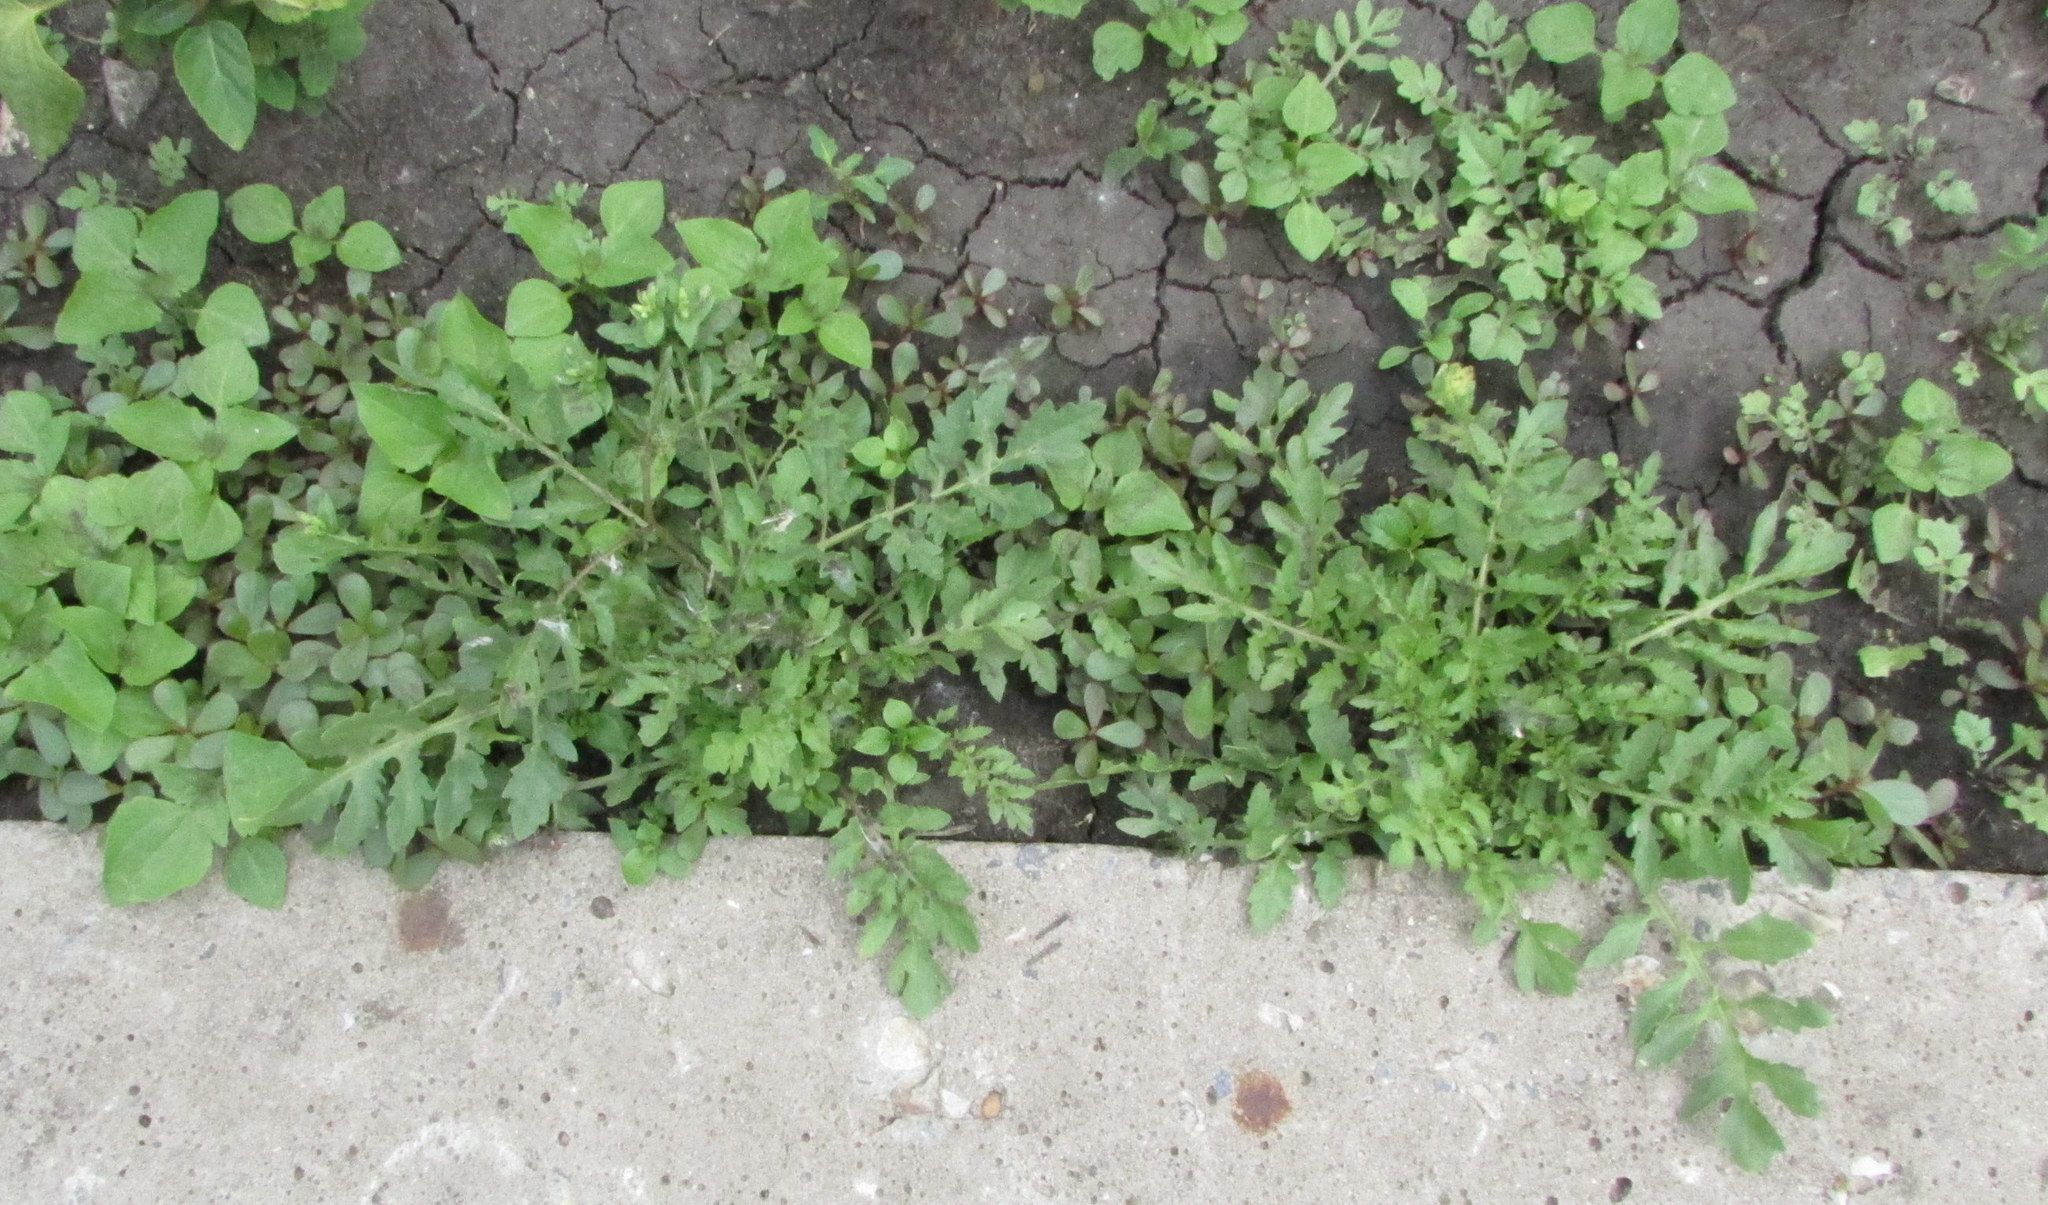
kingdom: Plantae
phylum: Tracheophyta
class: Magnoliopsida
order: Brassicales
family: Brassicaceae
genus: Rorippa
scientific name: Rorippa palustris
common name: Marsh yellow-cress
